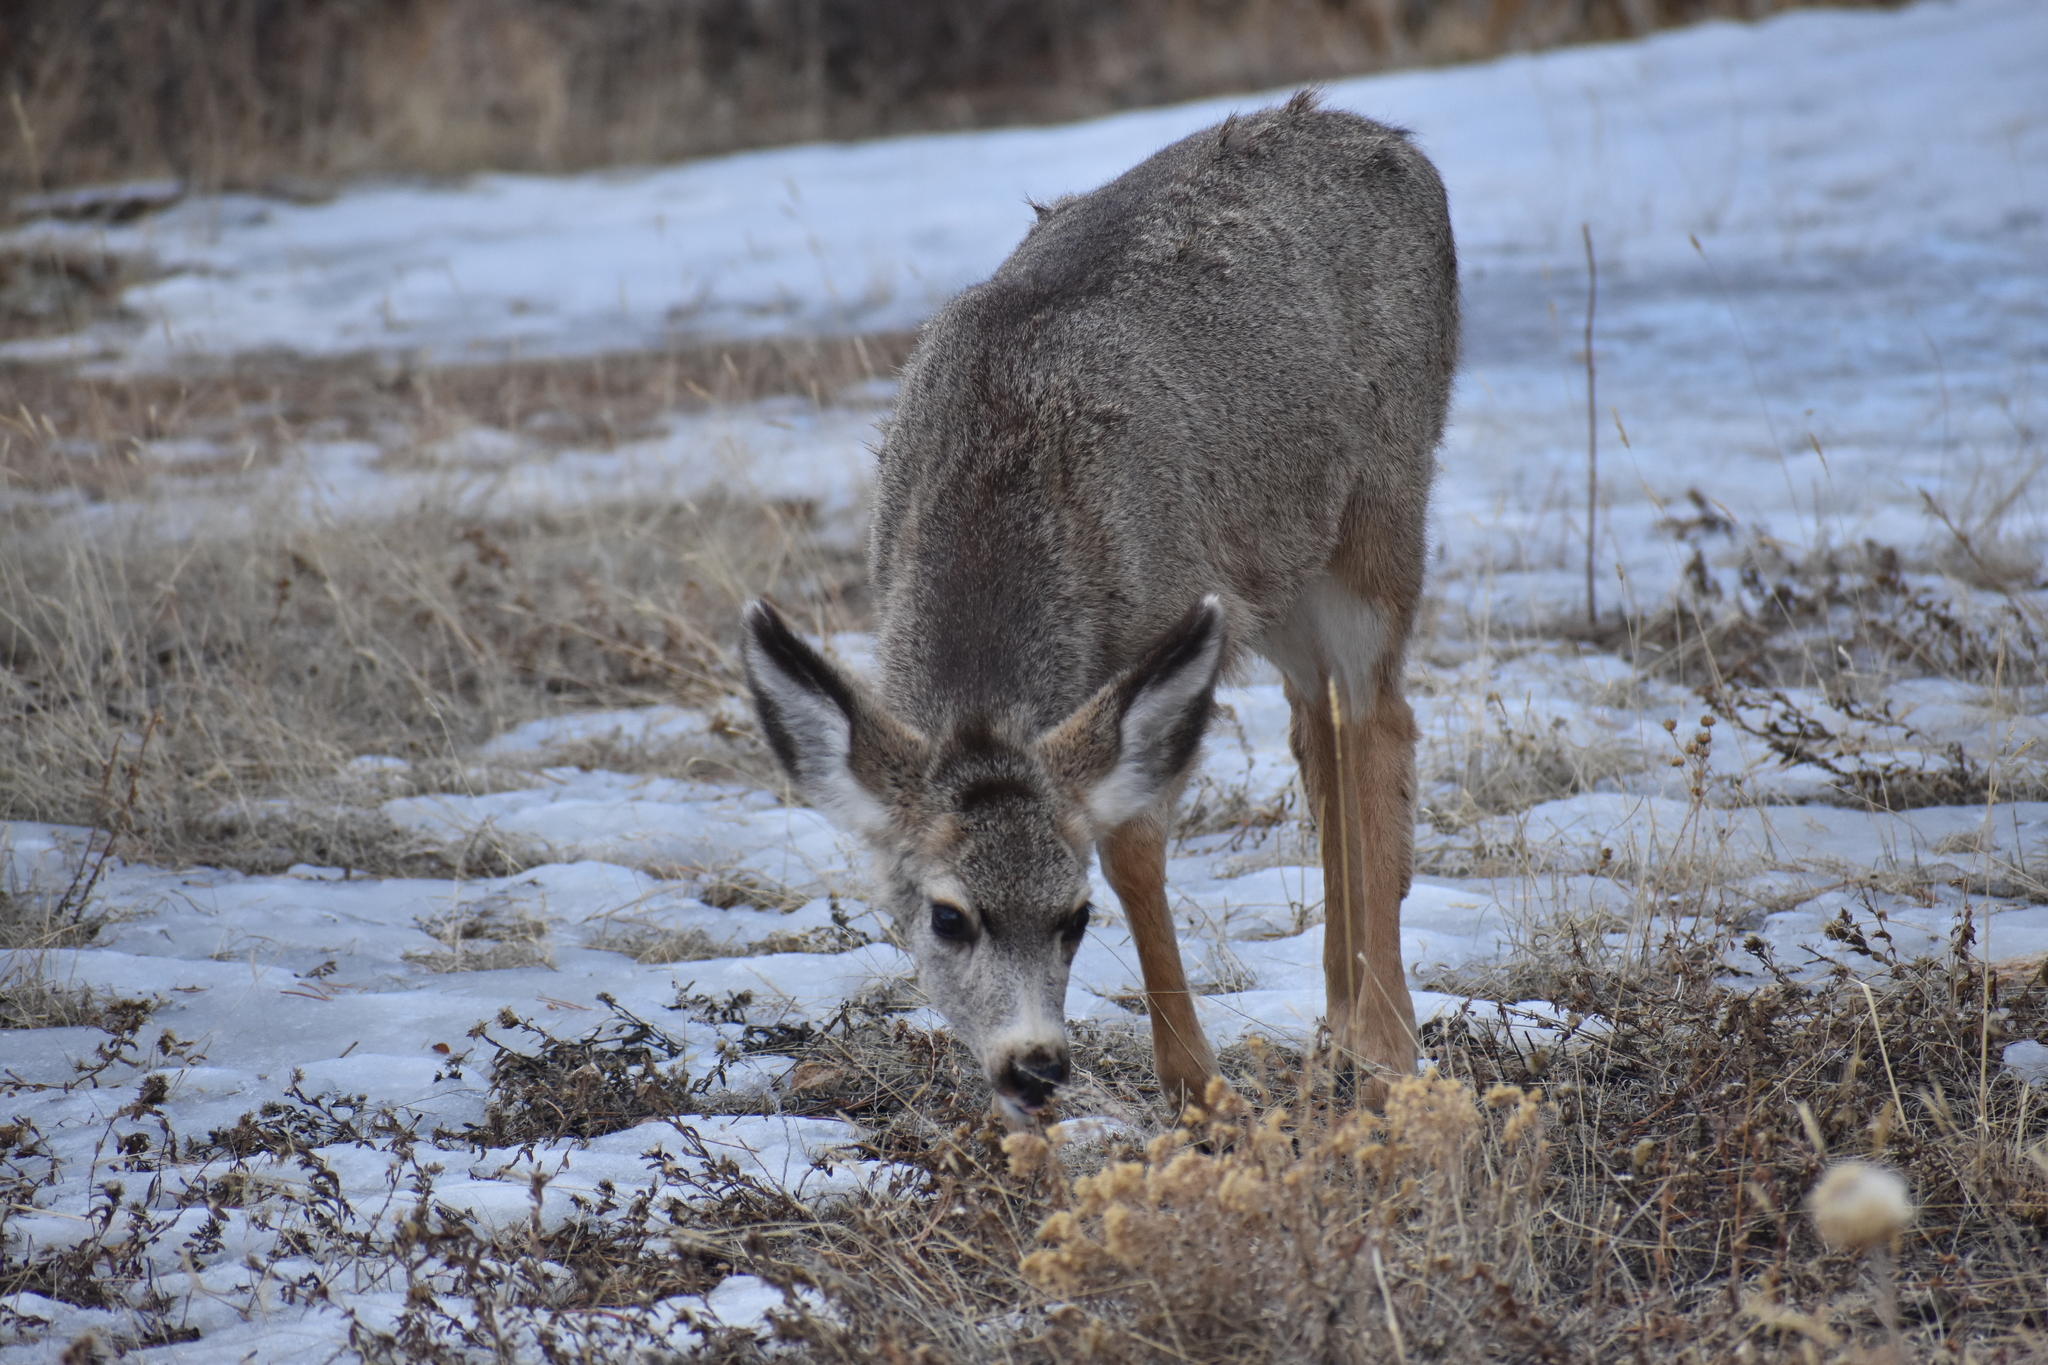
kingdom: Animalia
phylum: Chordata
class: Mammalia
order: Artiodactyla
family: Cervidae
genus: Odocoileus
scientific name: Odocoileus hemionus
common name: Mule deer
